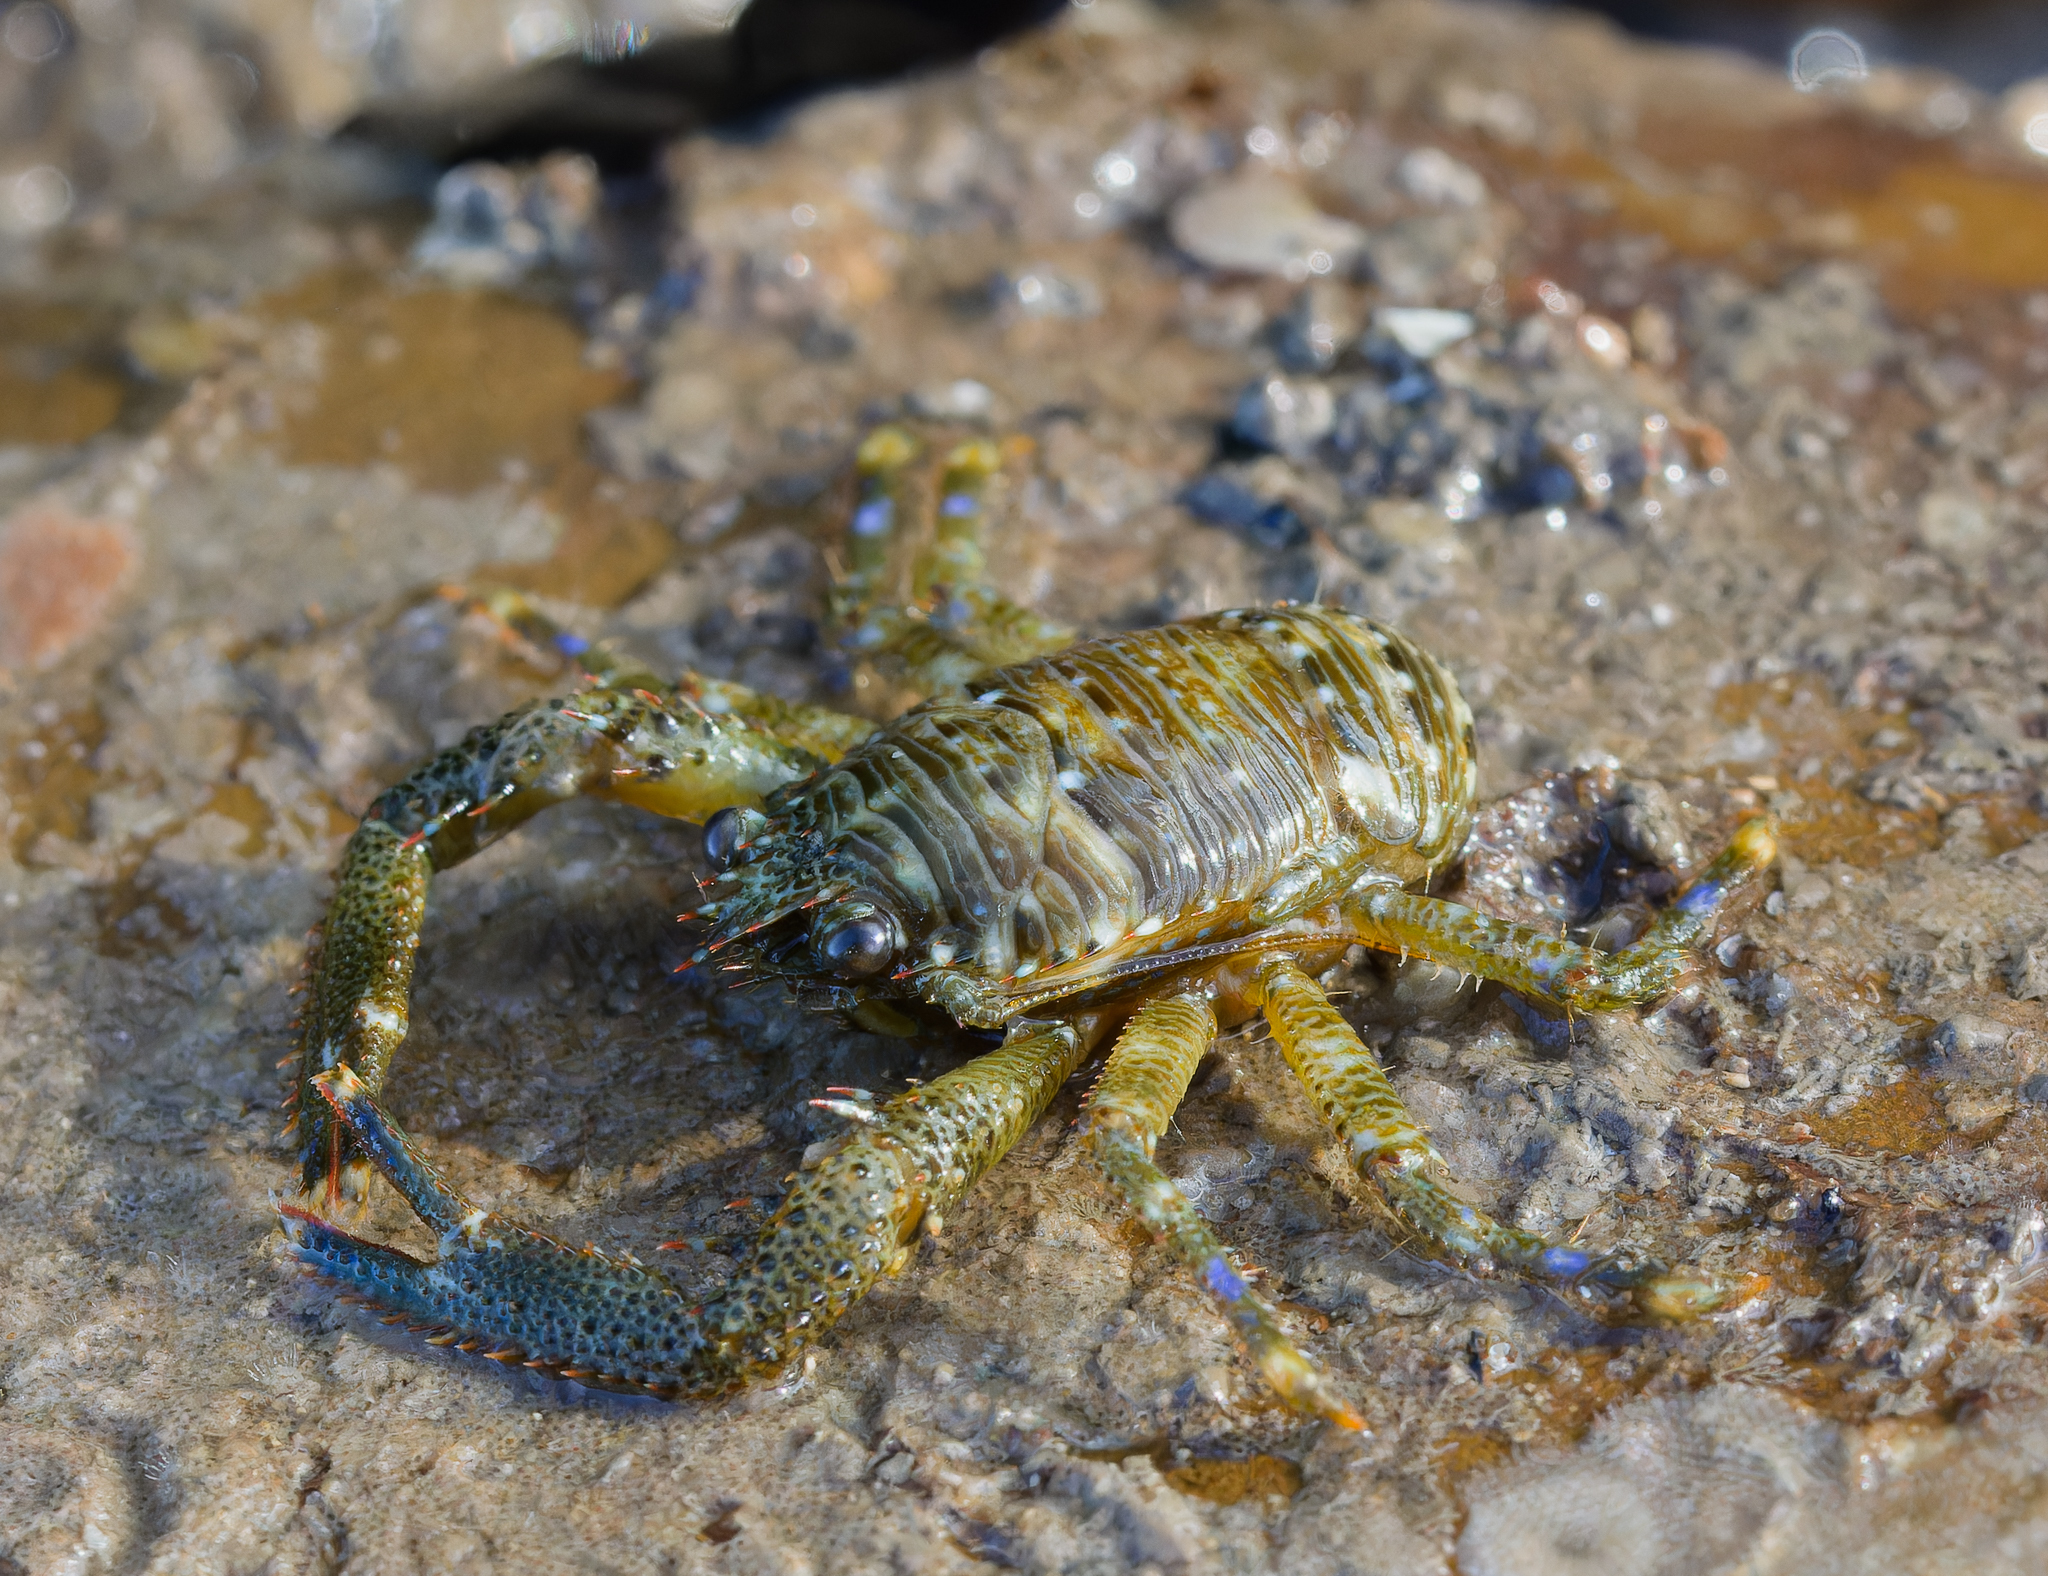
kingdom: Animalia
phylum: Arthropoda
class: Malacostraca
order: Decapoda
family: Galatheidae
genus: Galathea
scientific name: Galathea squamifera
